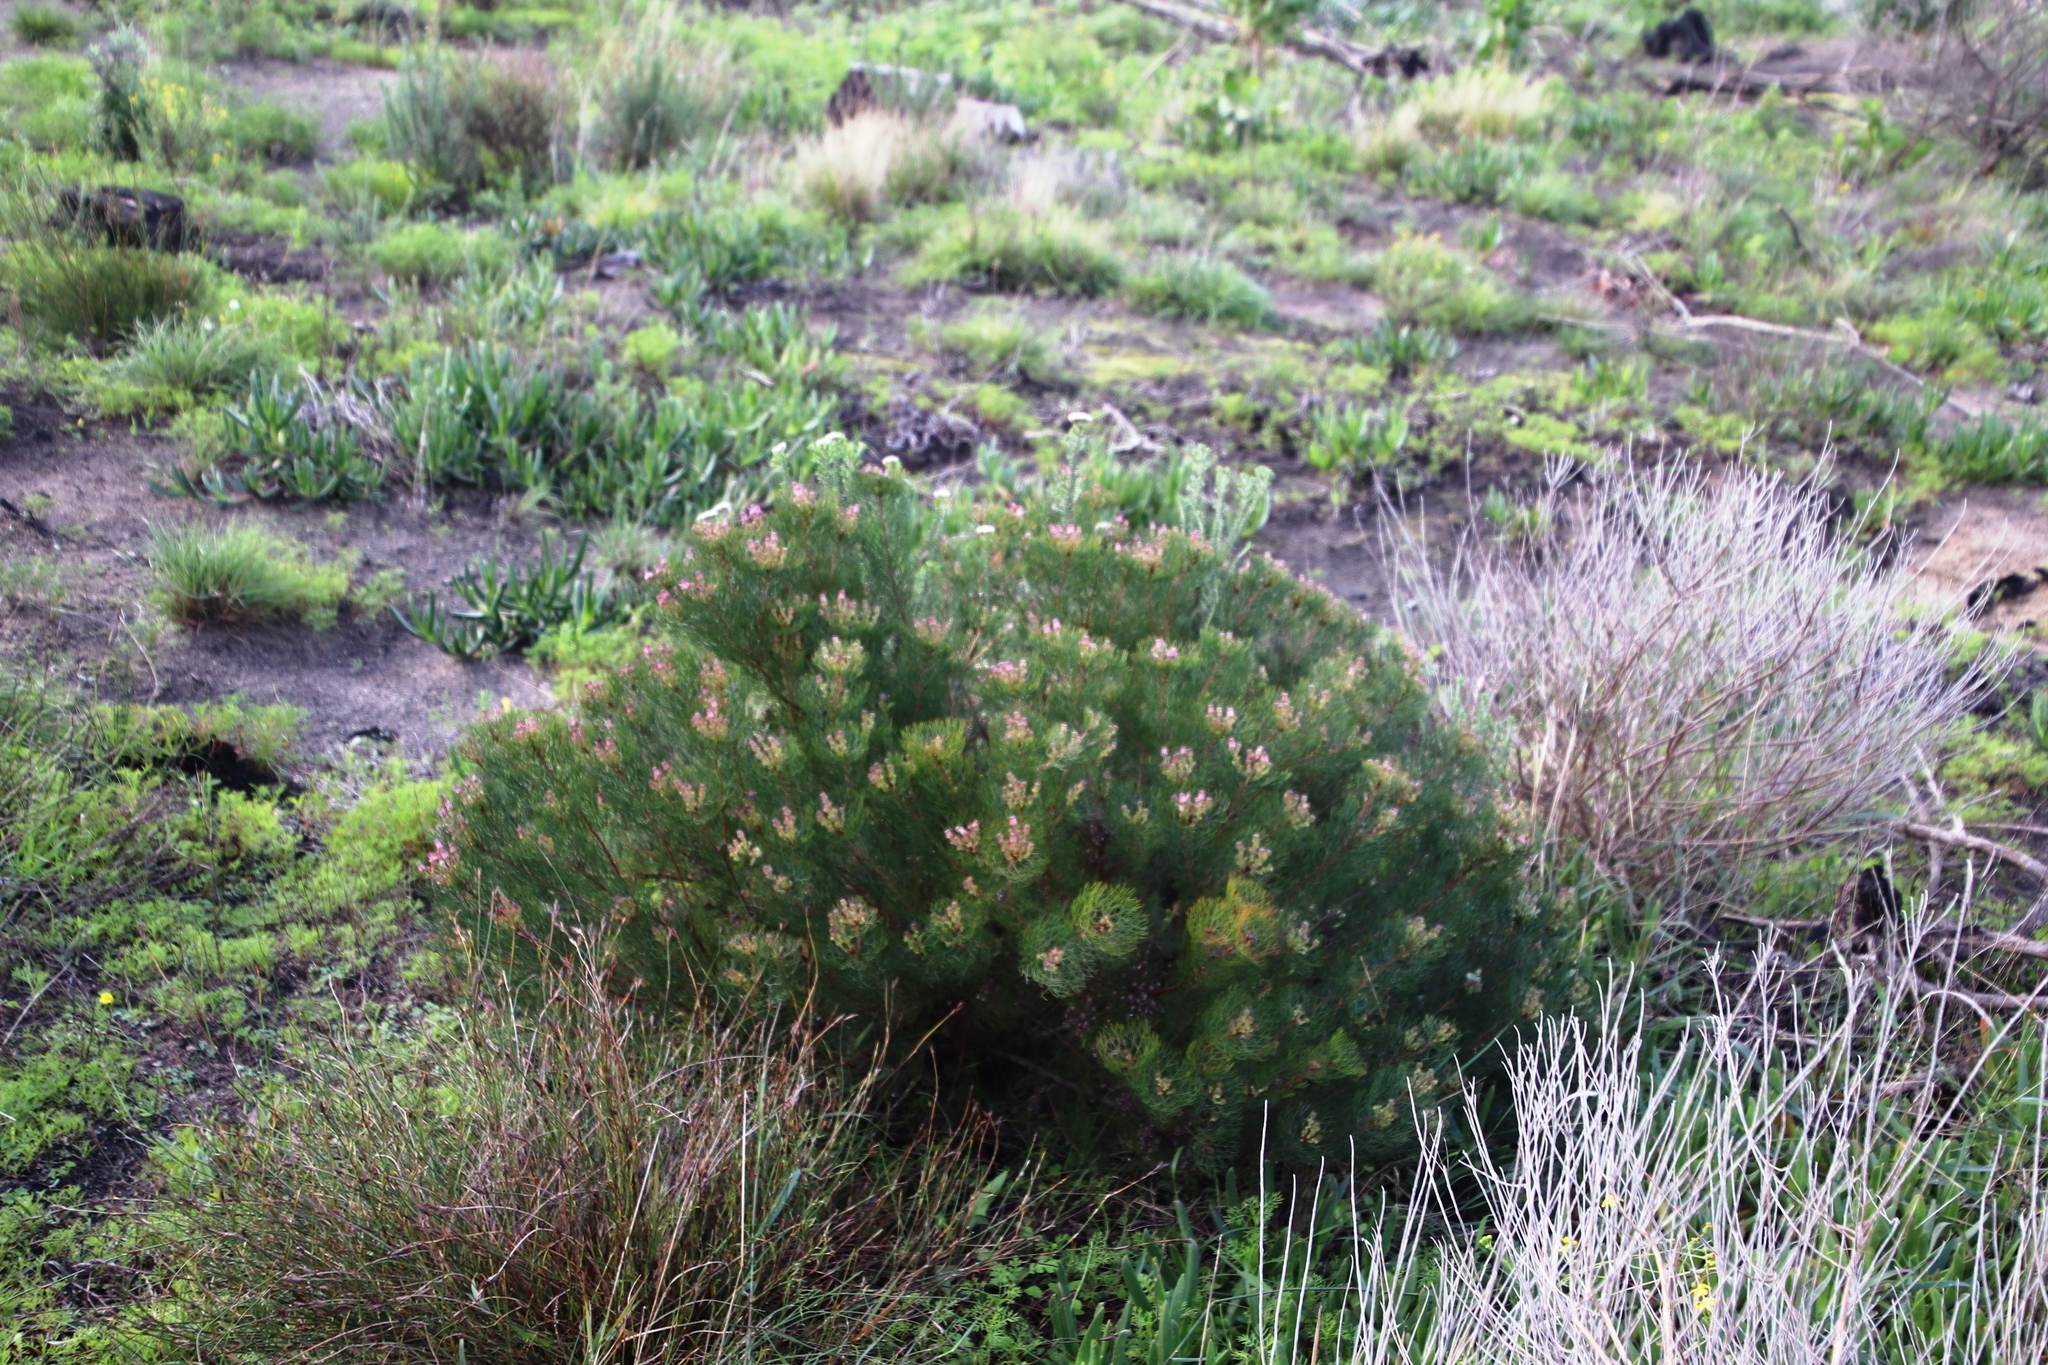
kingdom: Plantae
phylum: Tracheophyta
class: Magnoliopsida
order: Proteales
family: Proteaceae
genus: Serruria
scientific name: Serruria fasciflora
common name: Common pin spiderhead
